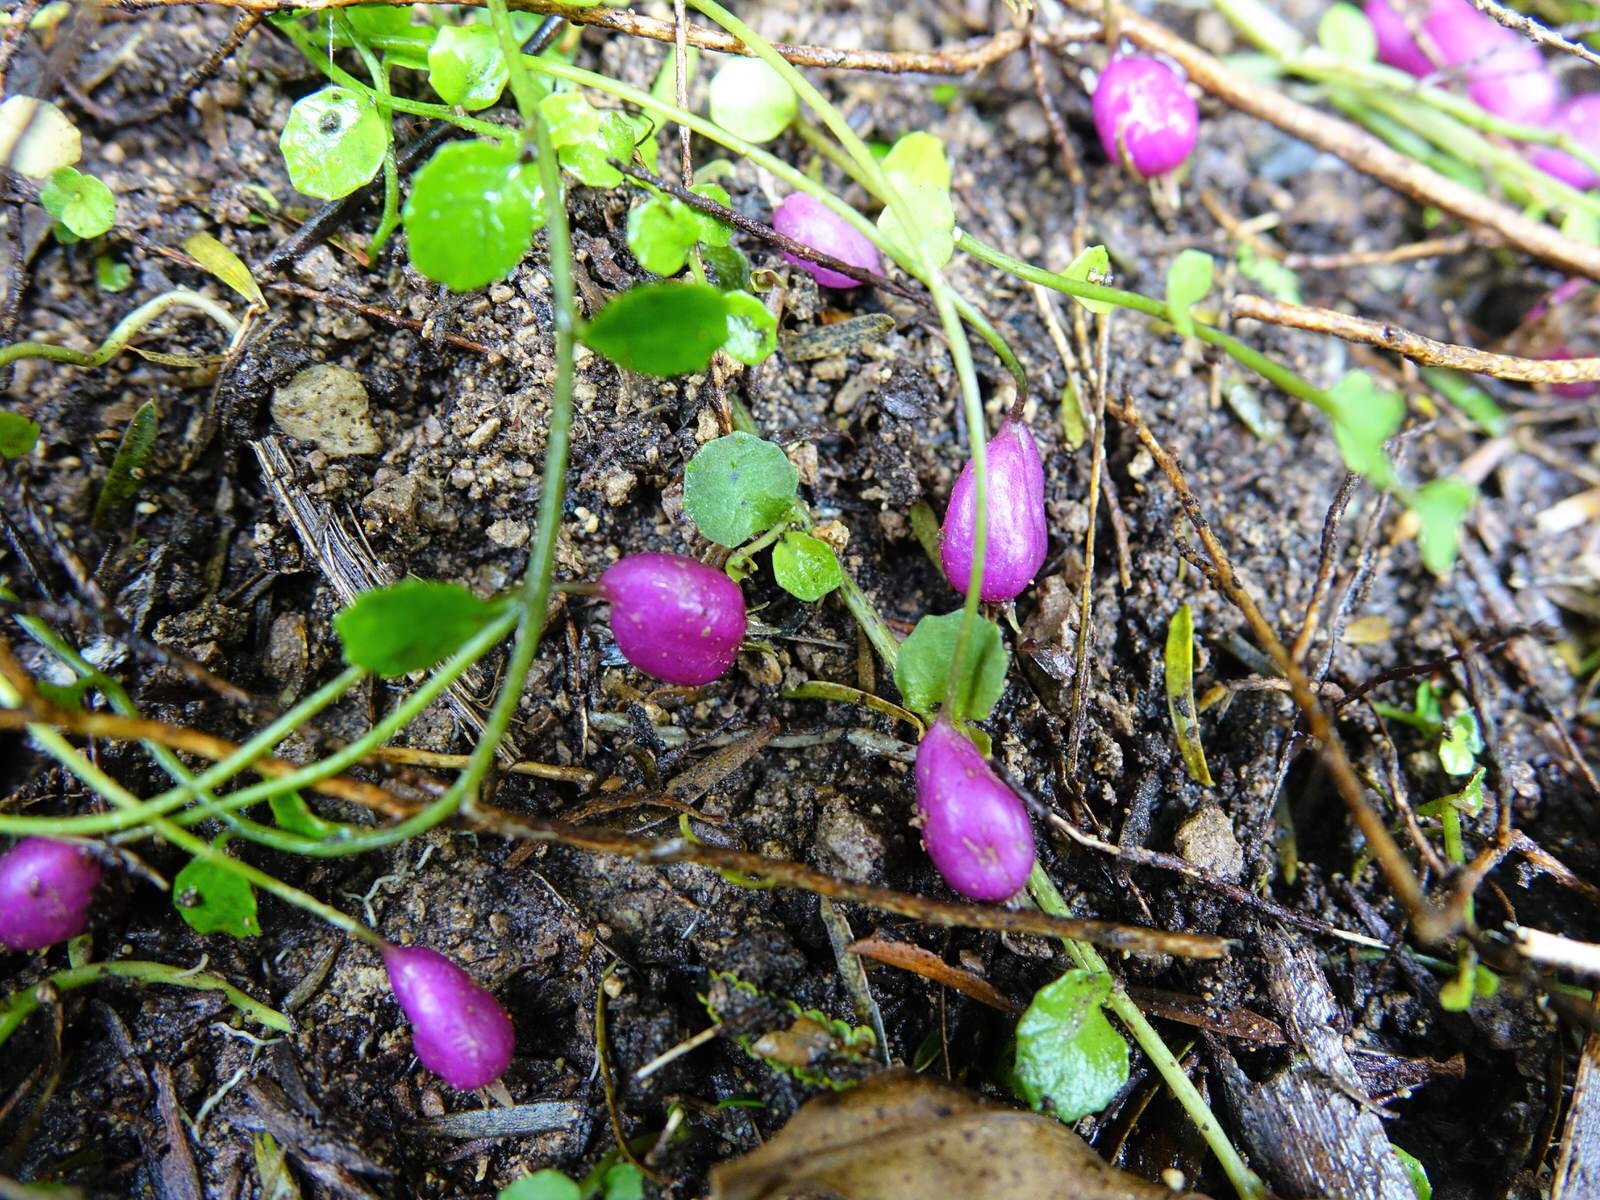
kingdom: Plantae
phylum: Tracheophyta
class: Magnoliopsida
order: Asterales
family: Campanulaceae
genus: Lobelia
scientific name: Lobelia angulata
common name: Lawn lobelia
